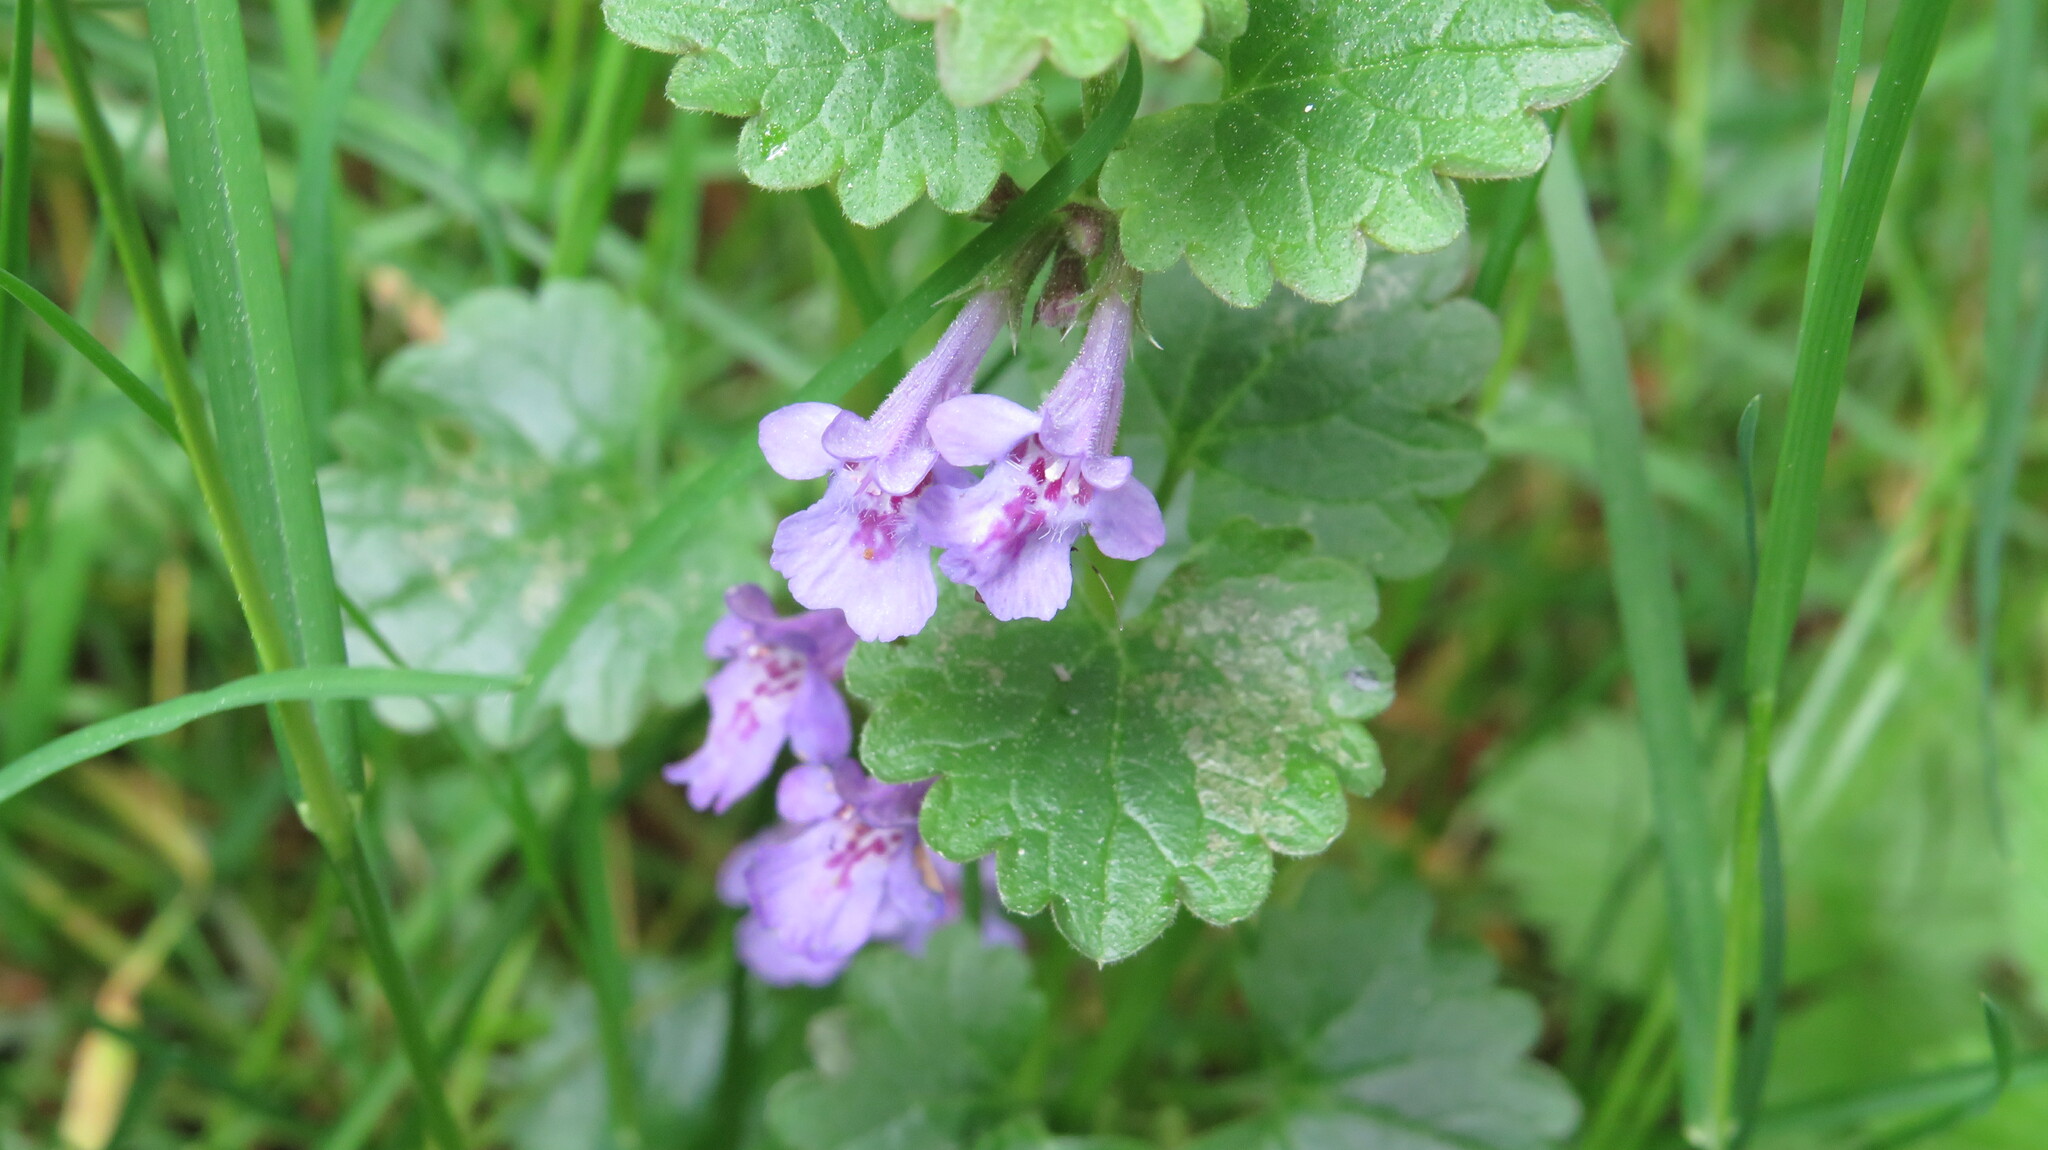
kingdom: Plantae
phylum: Tracheophyta
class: Magnoliopsida
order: Lamiales
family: Lamiaceae
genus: Glechoma
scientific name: Glechoma hederacea
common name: Ground ivy
